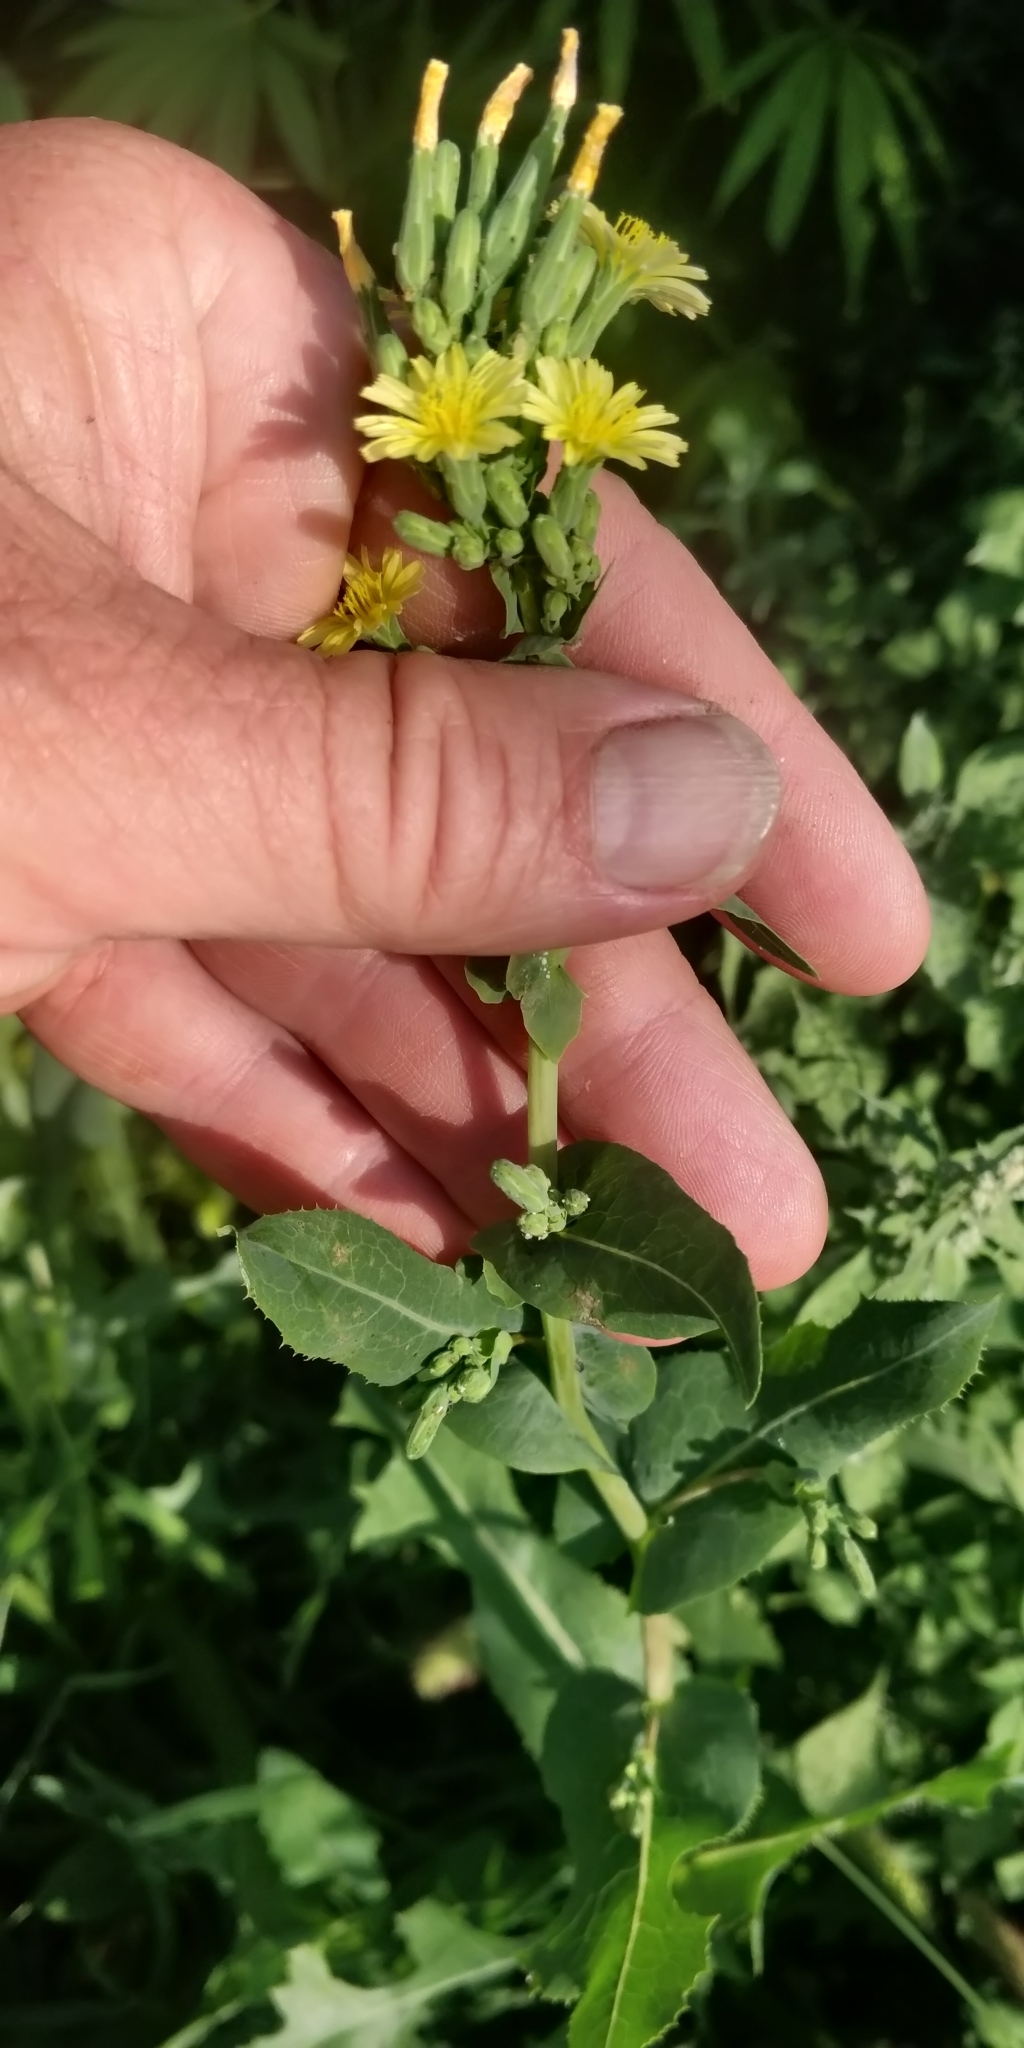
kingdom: Plantae
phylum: Tracheophyta
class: Magnoliopsida
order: Asterales
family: Asteraceae
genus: Lactuca
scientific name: Lactuca serriola
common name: Prickly lettuce
